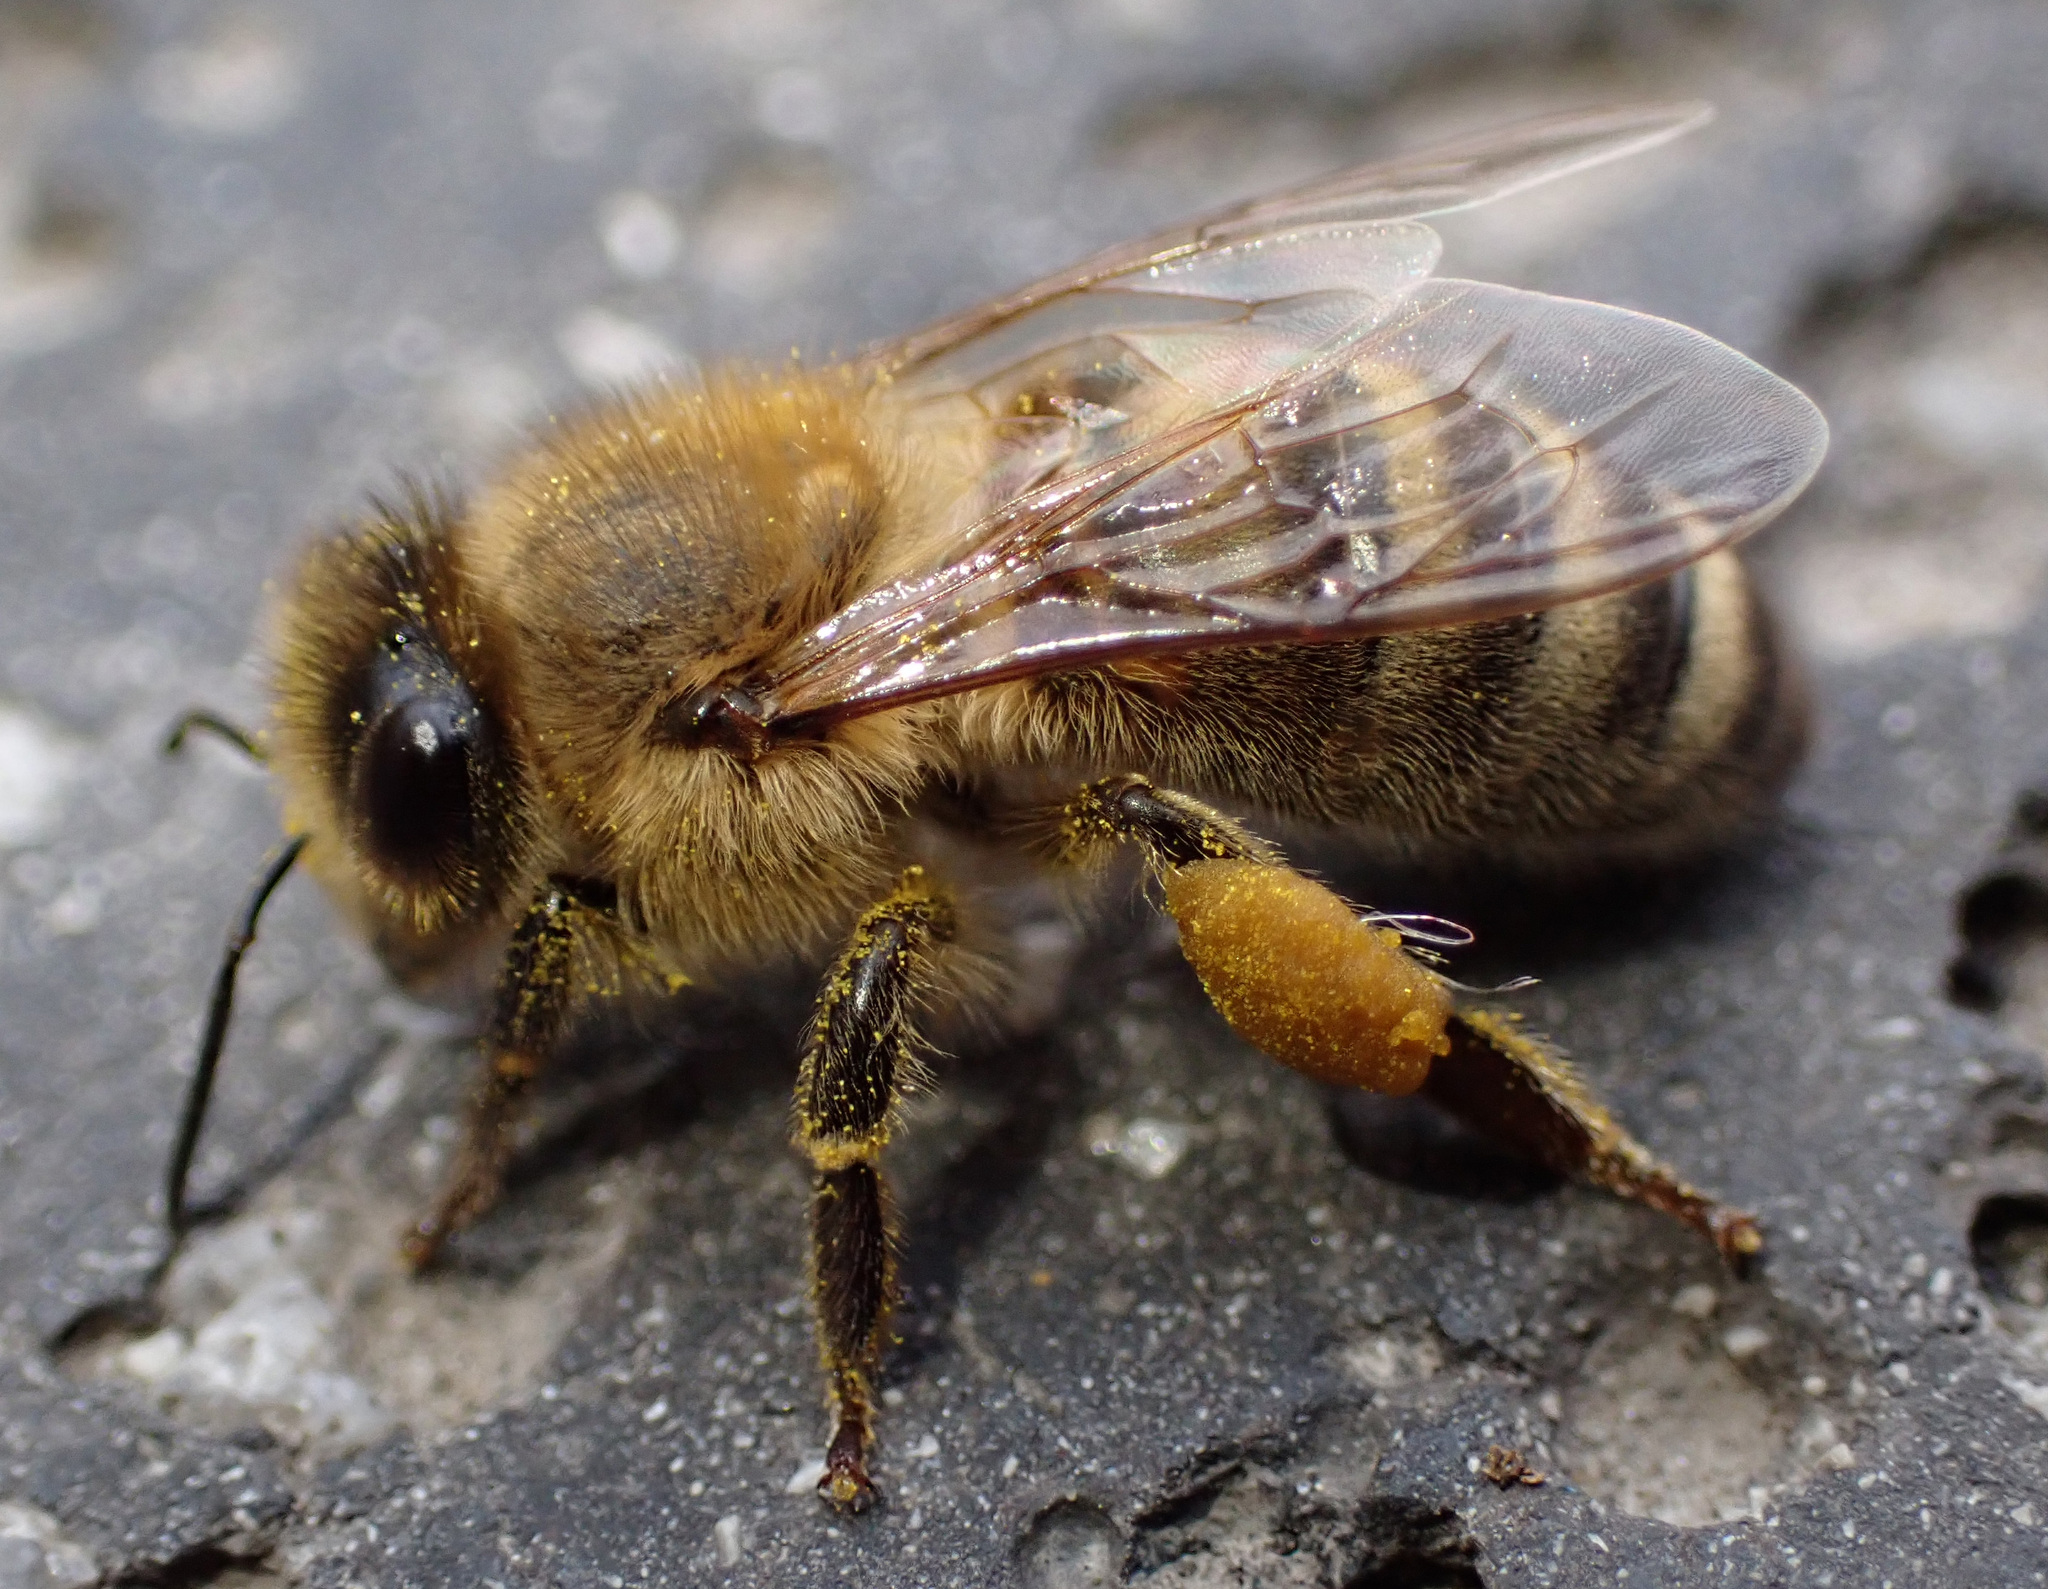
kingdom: Animalia
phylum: Arthropoda
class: Insecta
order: Hymenoptera
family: Apidae
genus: Apis
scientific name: Apis mellifera
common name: Honey bee
